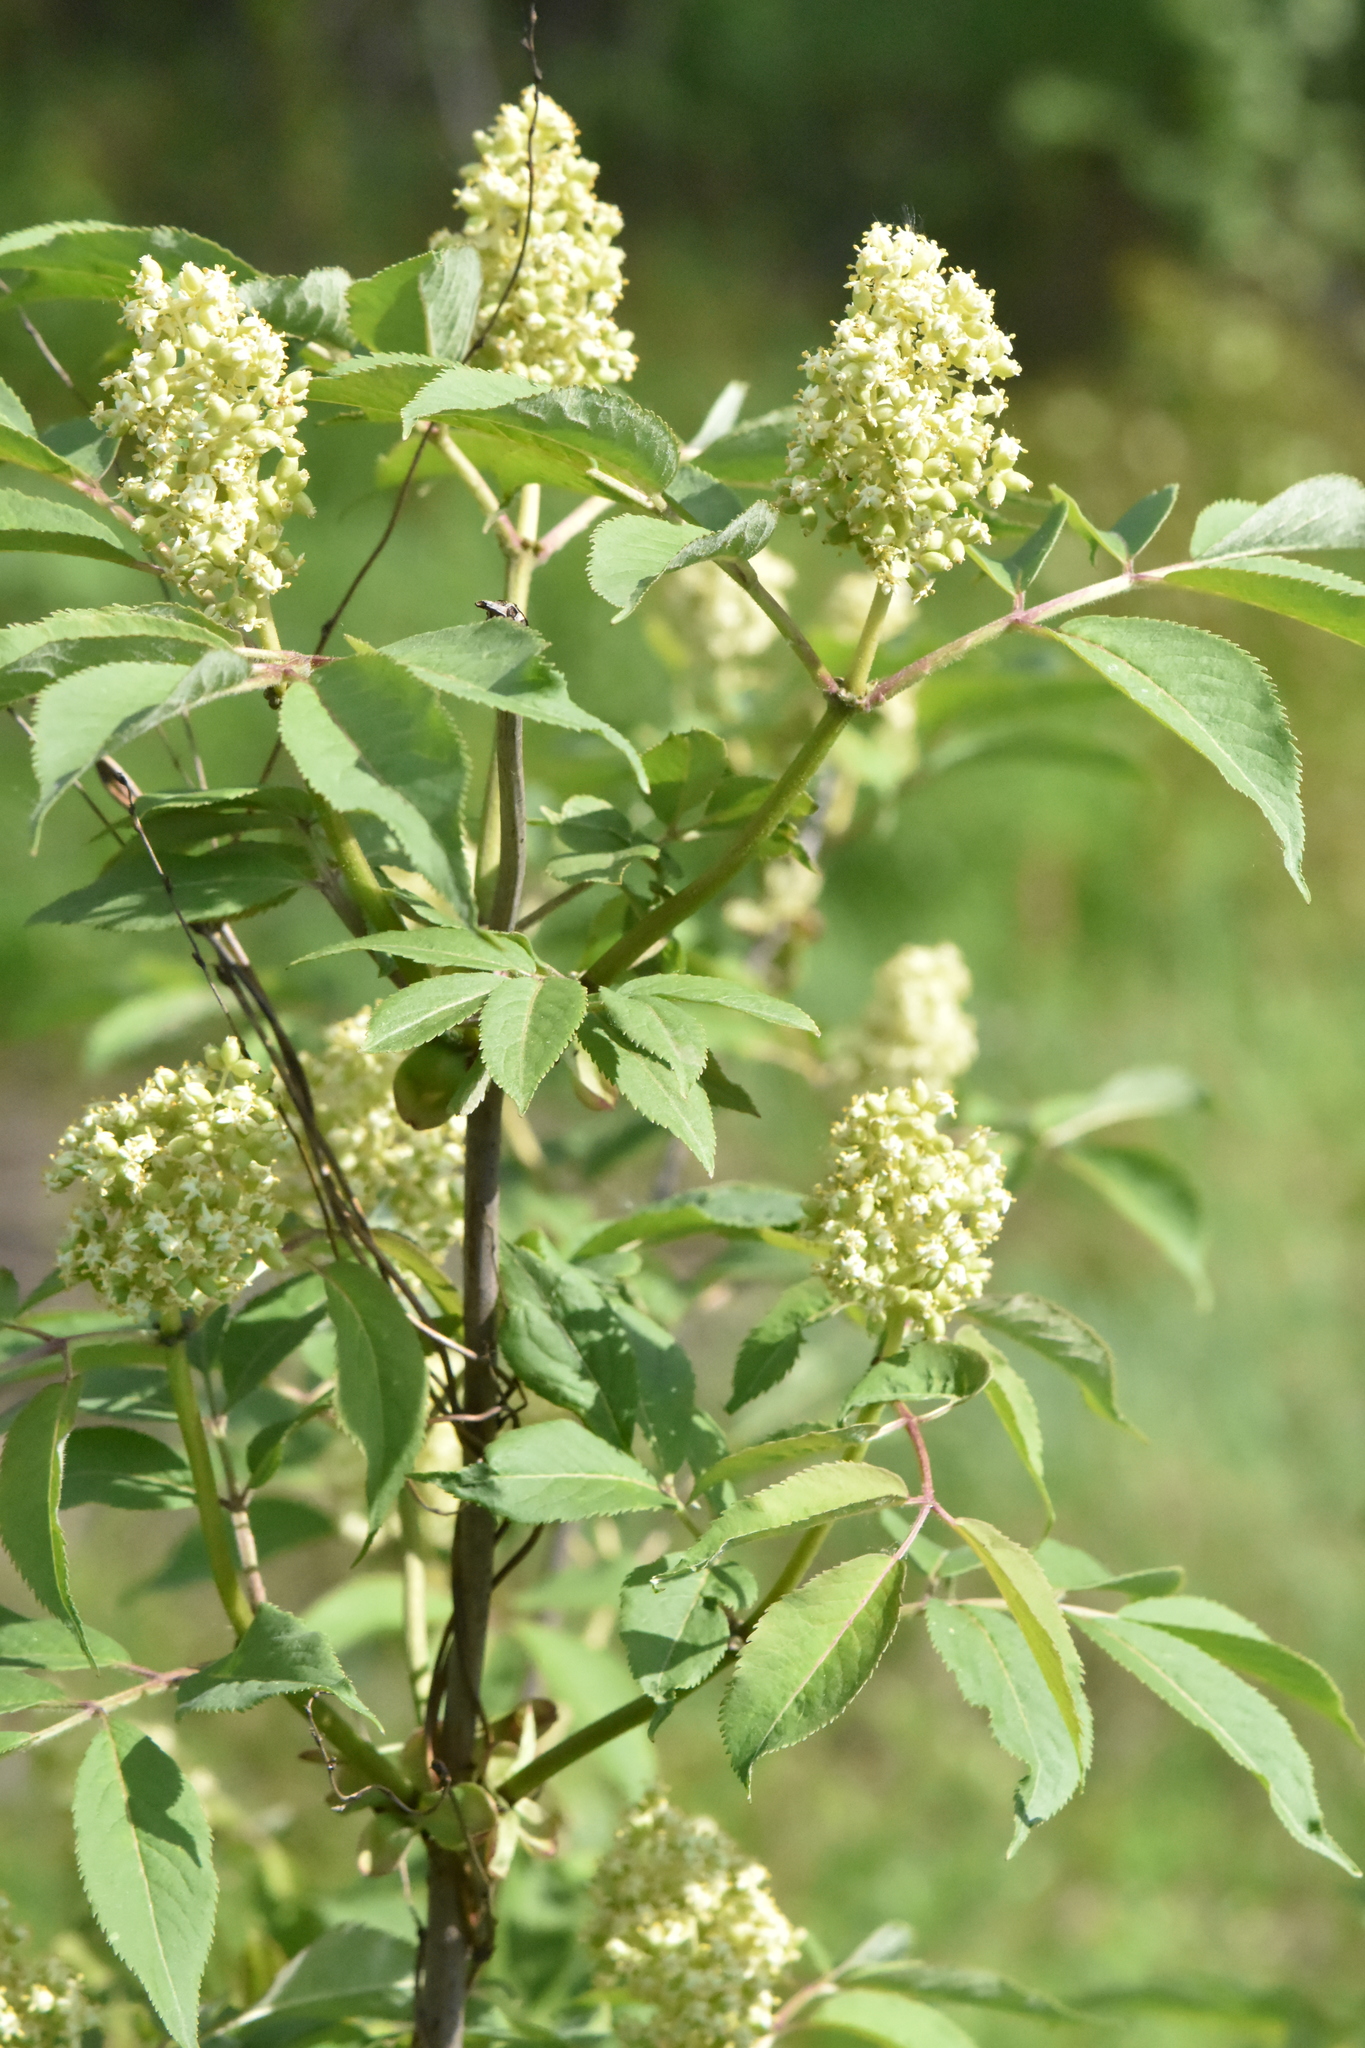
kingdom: Plantae
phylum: Tracheophyta
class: Magnoliopsida
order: Dipsacales
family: Viburnaceae
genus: Sambucus
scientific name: Sambucus racemosa
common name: Red-berried elder
